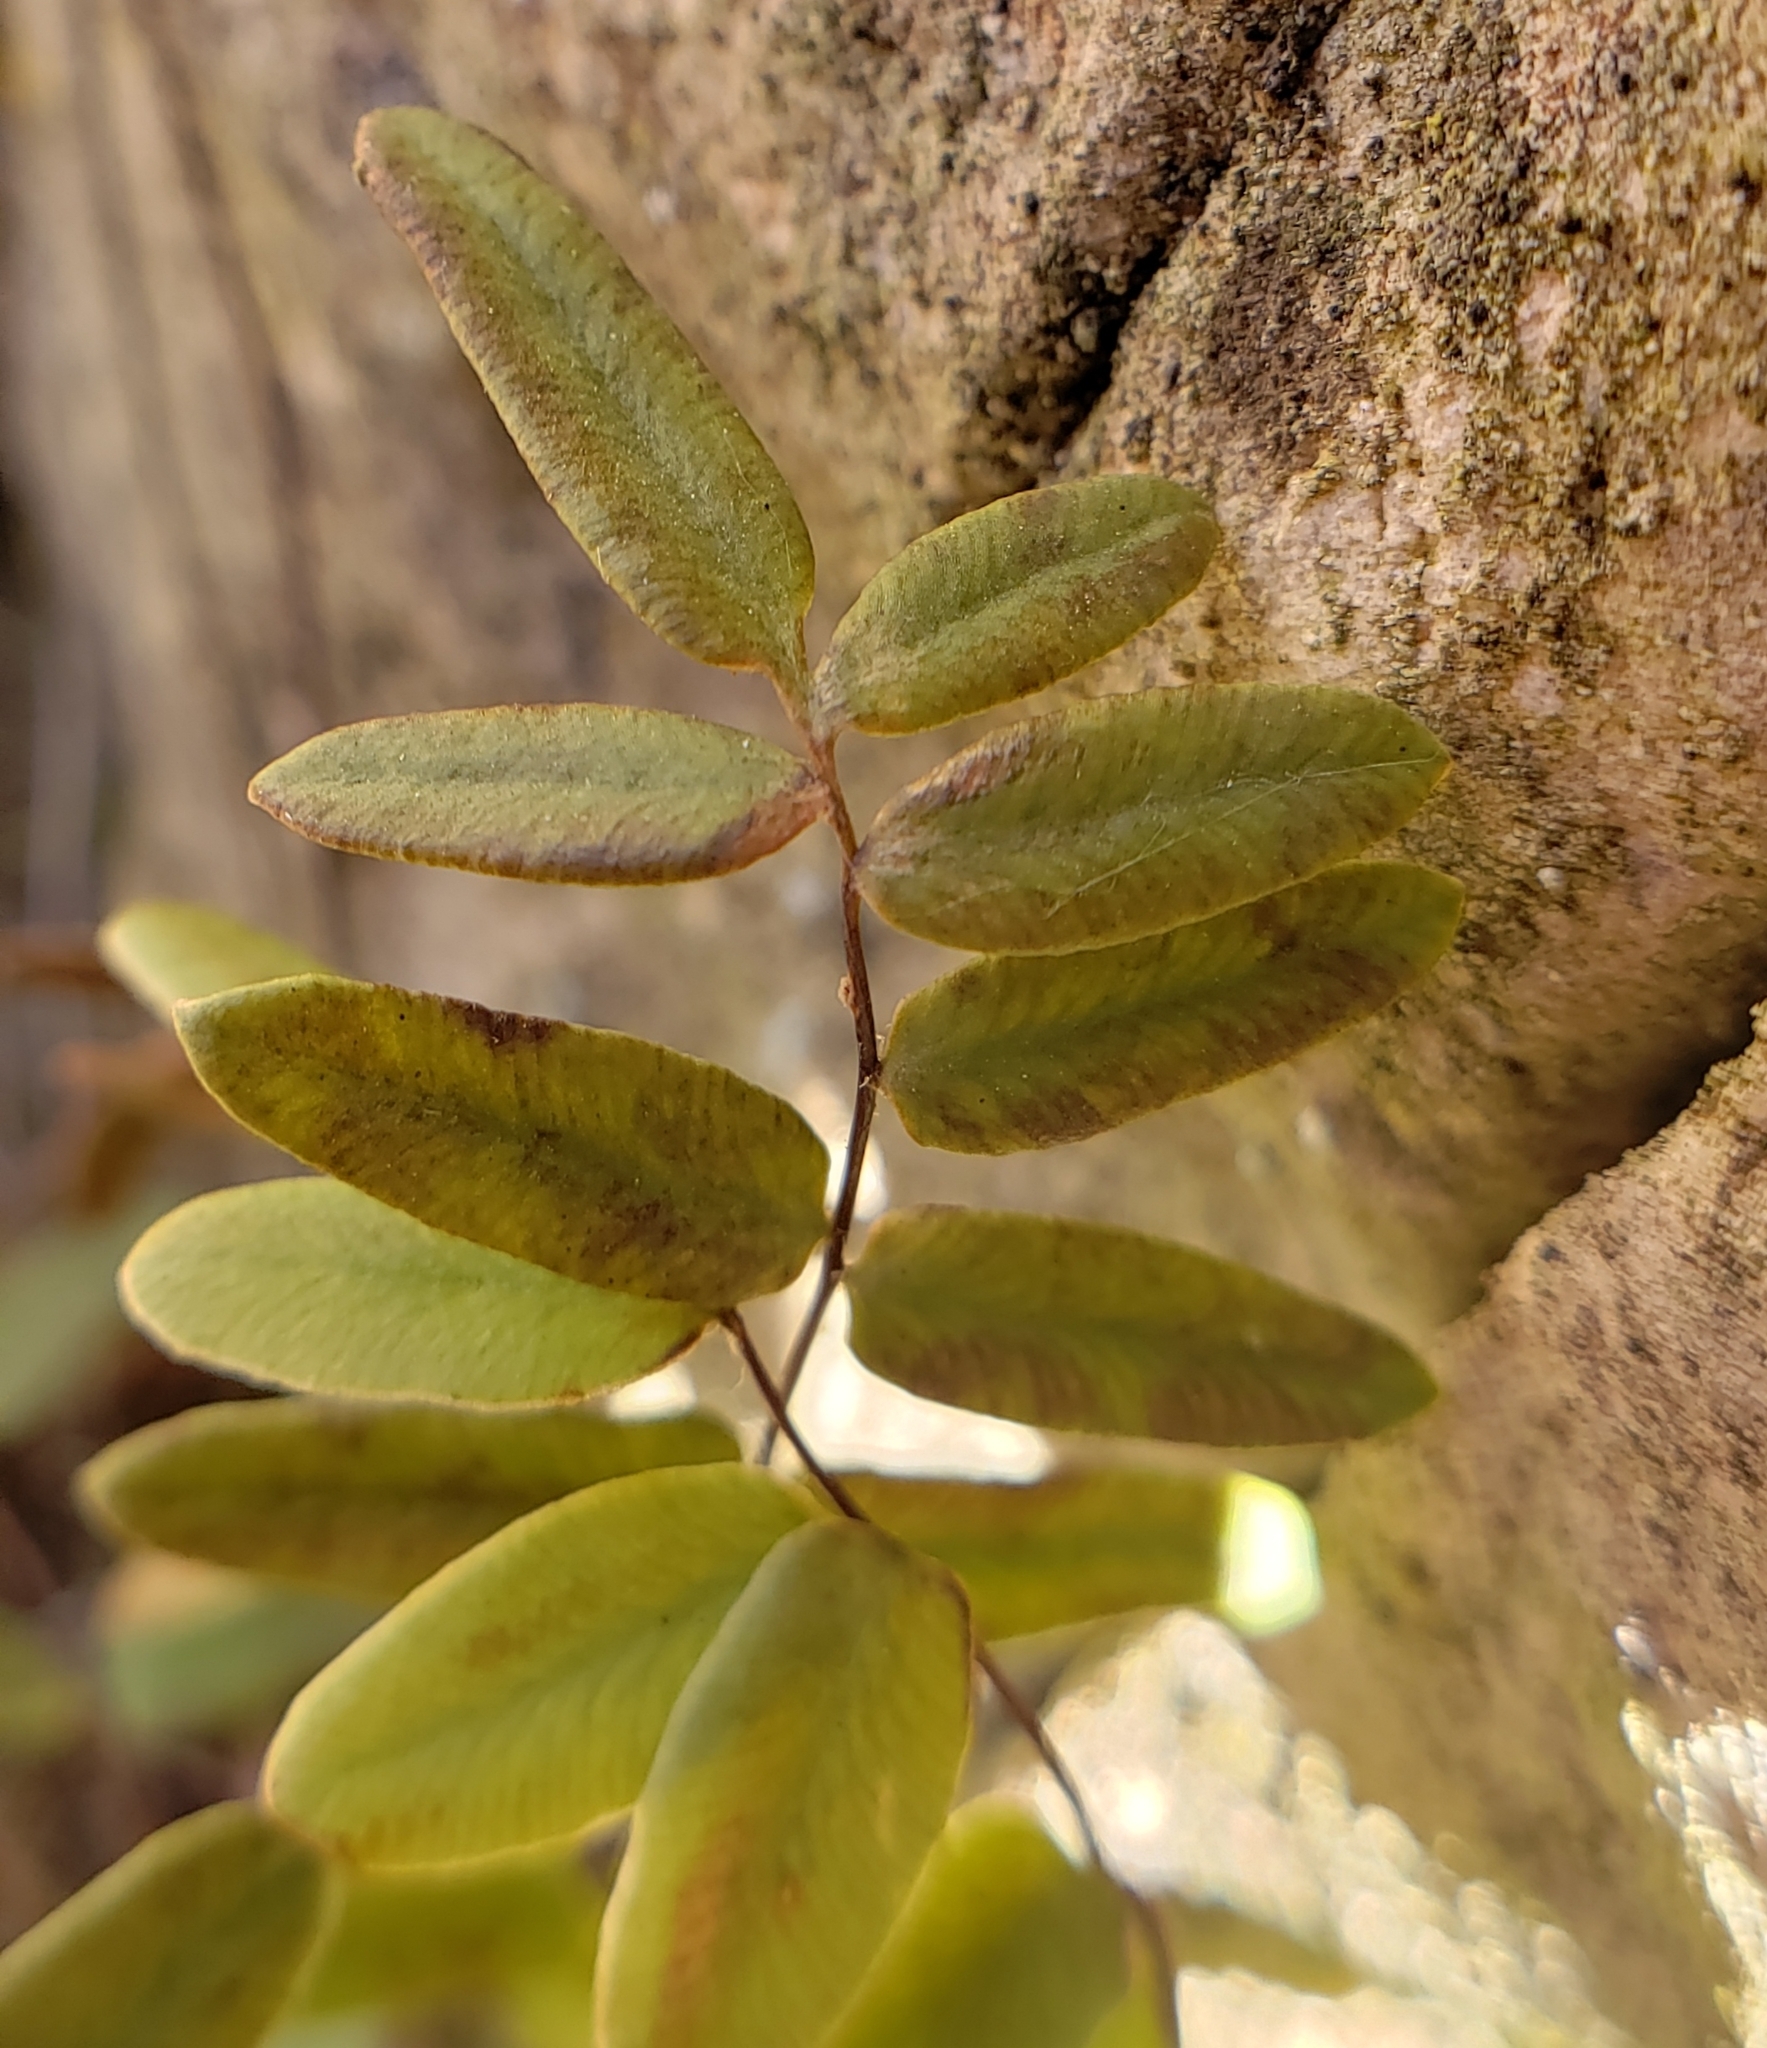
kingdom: Plantae
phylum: Tracheophyta
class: Polypodiopsida
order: Polypodiales
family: Pteridaceae
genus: Pellaea
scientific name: Pellaea glabella
